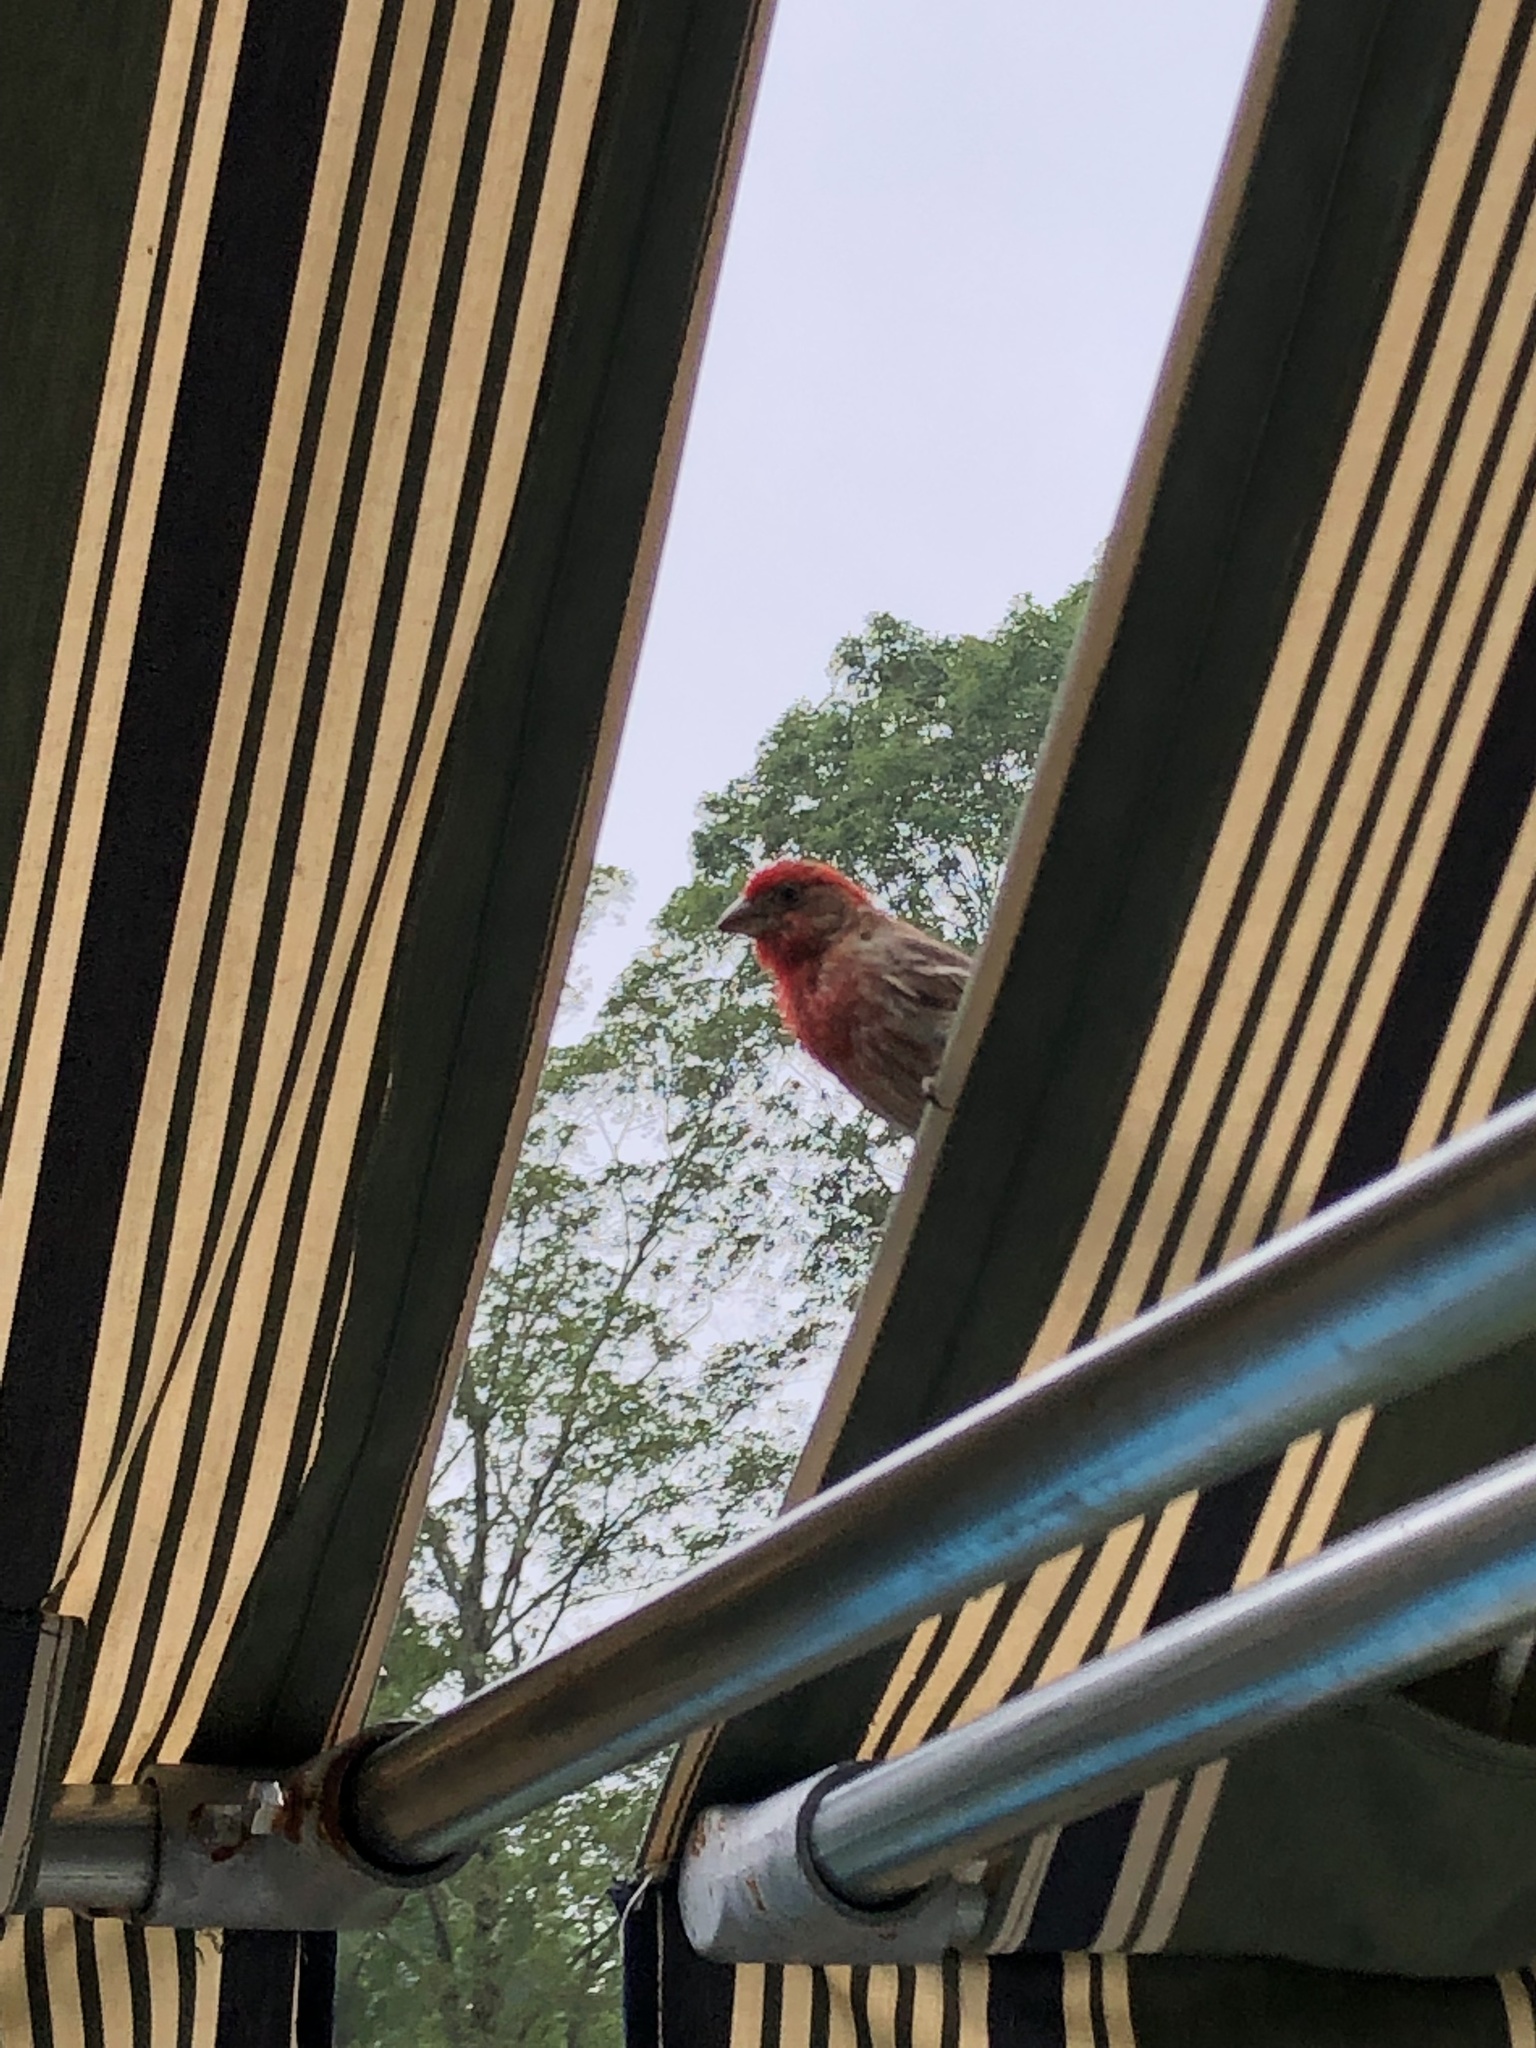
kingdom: Animalia
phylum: Chordata
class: Aves
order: Passeriformes
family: Fringillidae
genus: Haemorhous
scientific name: Haemorhous mexicanus
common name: House finch
